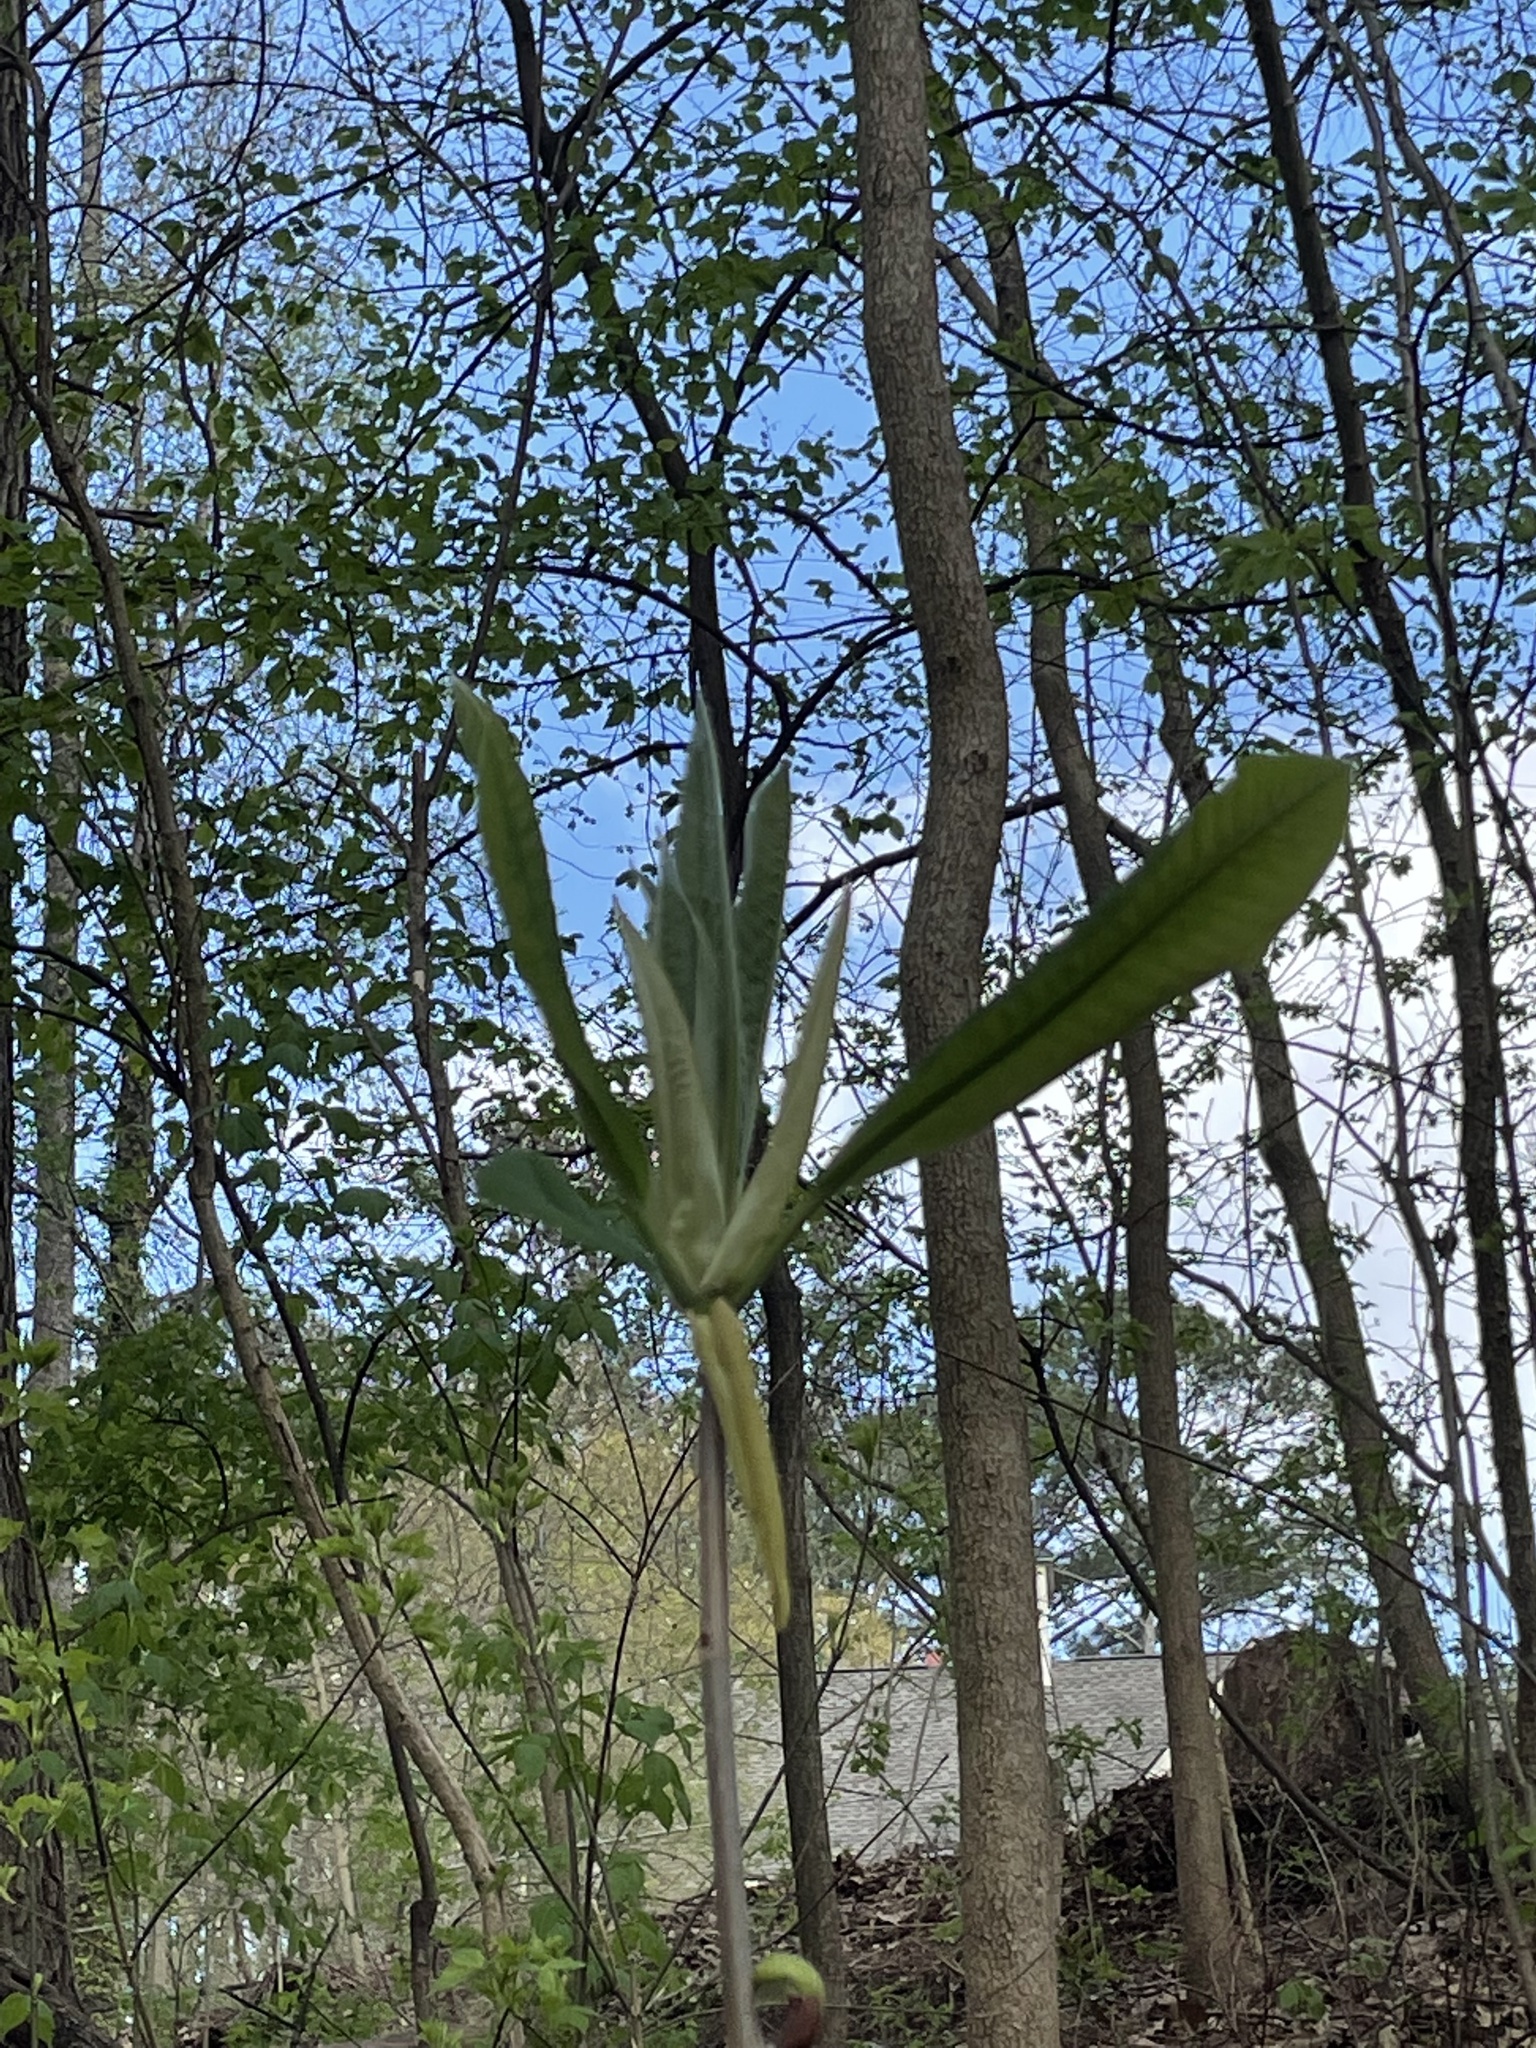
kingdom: Plantae
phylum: Tracheophyta
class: Magnoliopsida
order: Magnoliales
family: Magnoliaceae
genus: Magnolia
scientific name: Magnolia tripetala
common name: Umbrella magnolia
